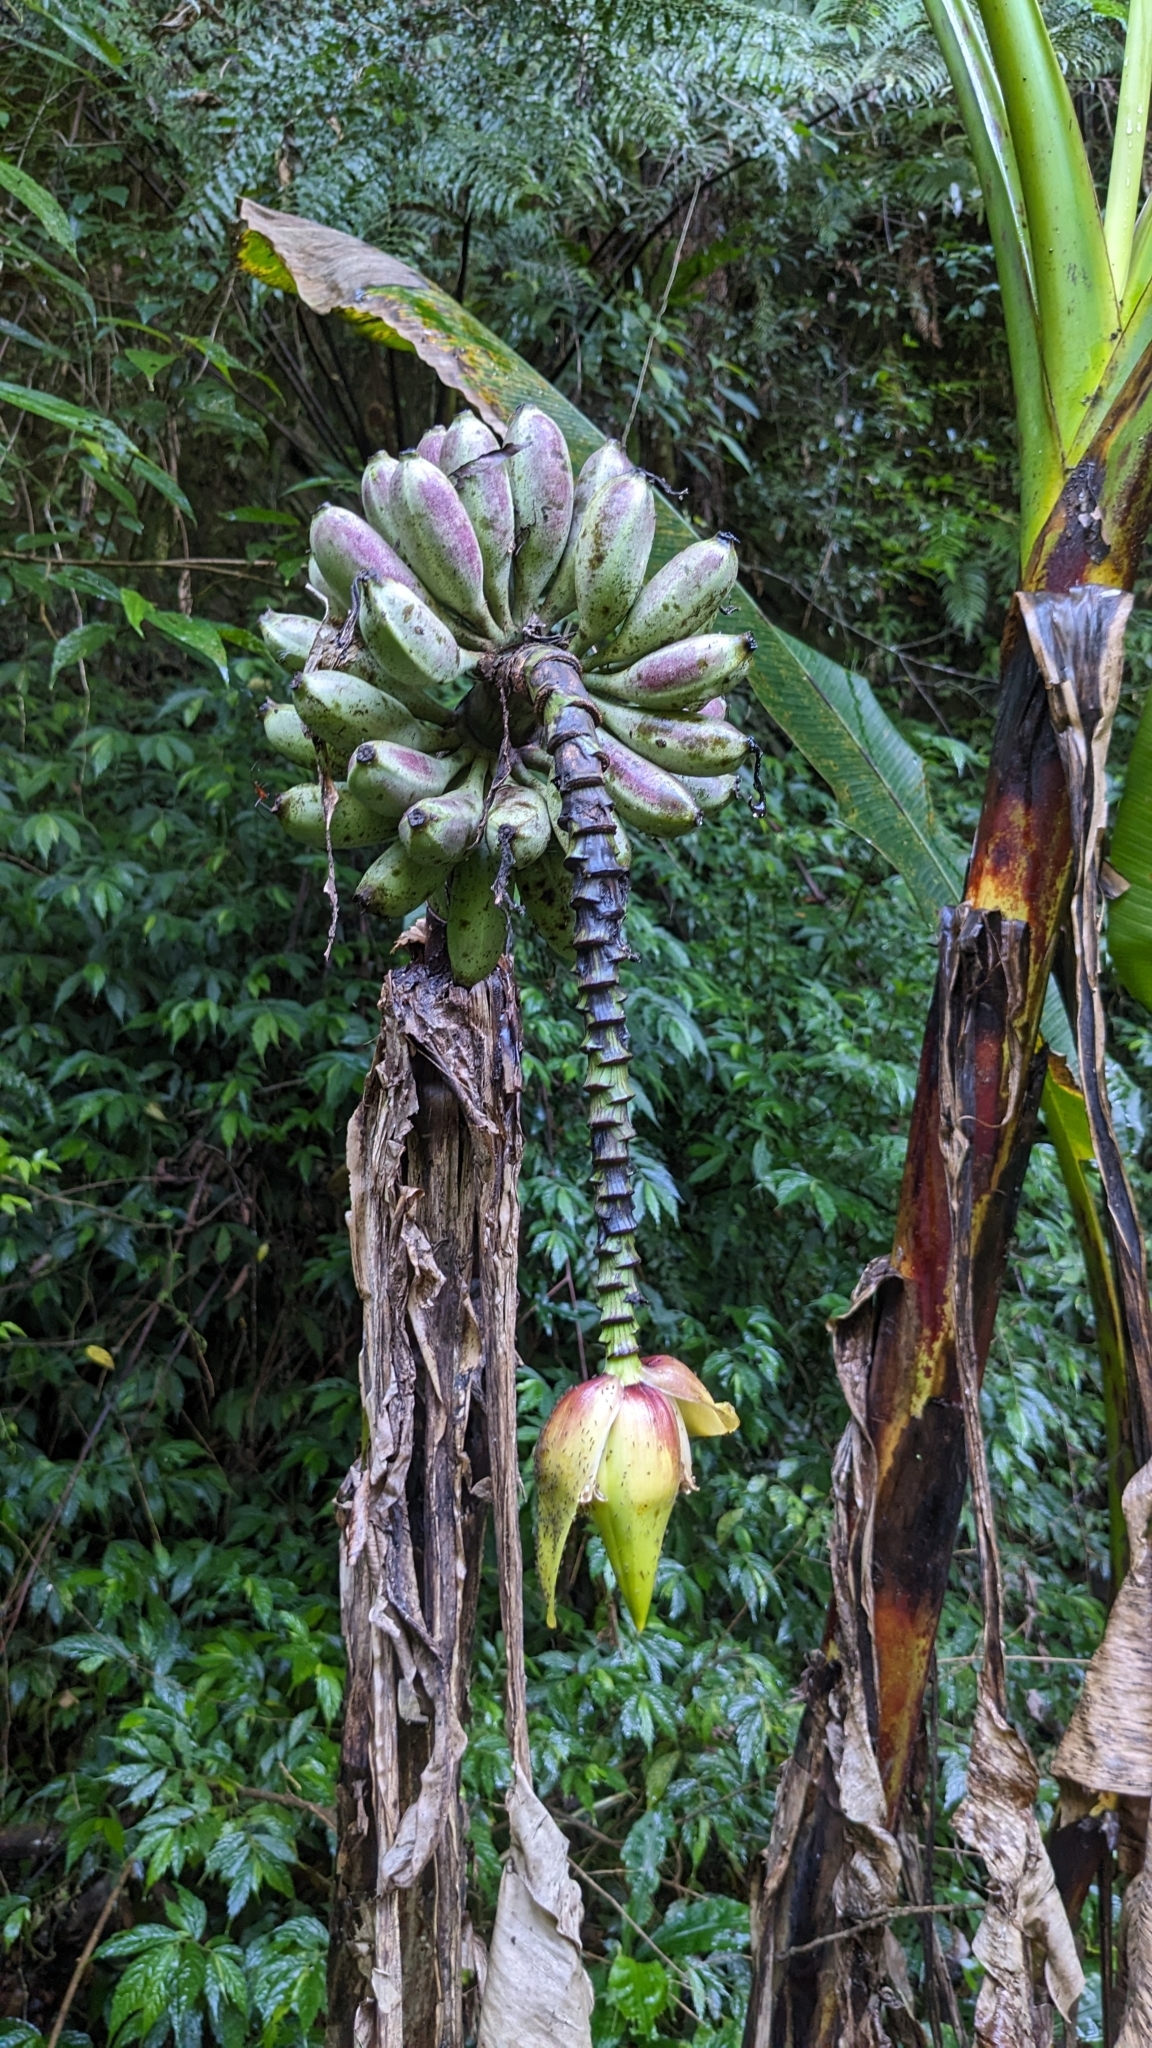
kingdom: Plantae
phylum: Tracheophyta
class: Liliopsida
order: Zingiberales
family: Musaceae
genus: Musa
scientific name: Musa itinerans
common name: Yunnan banana
